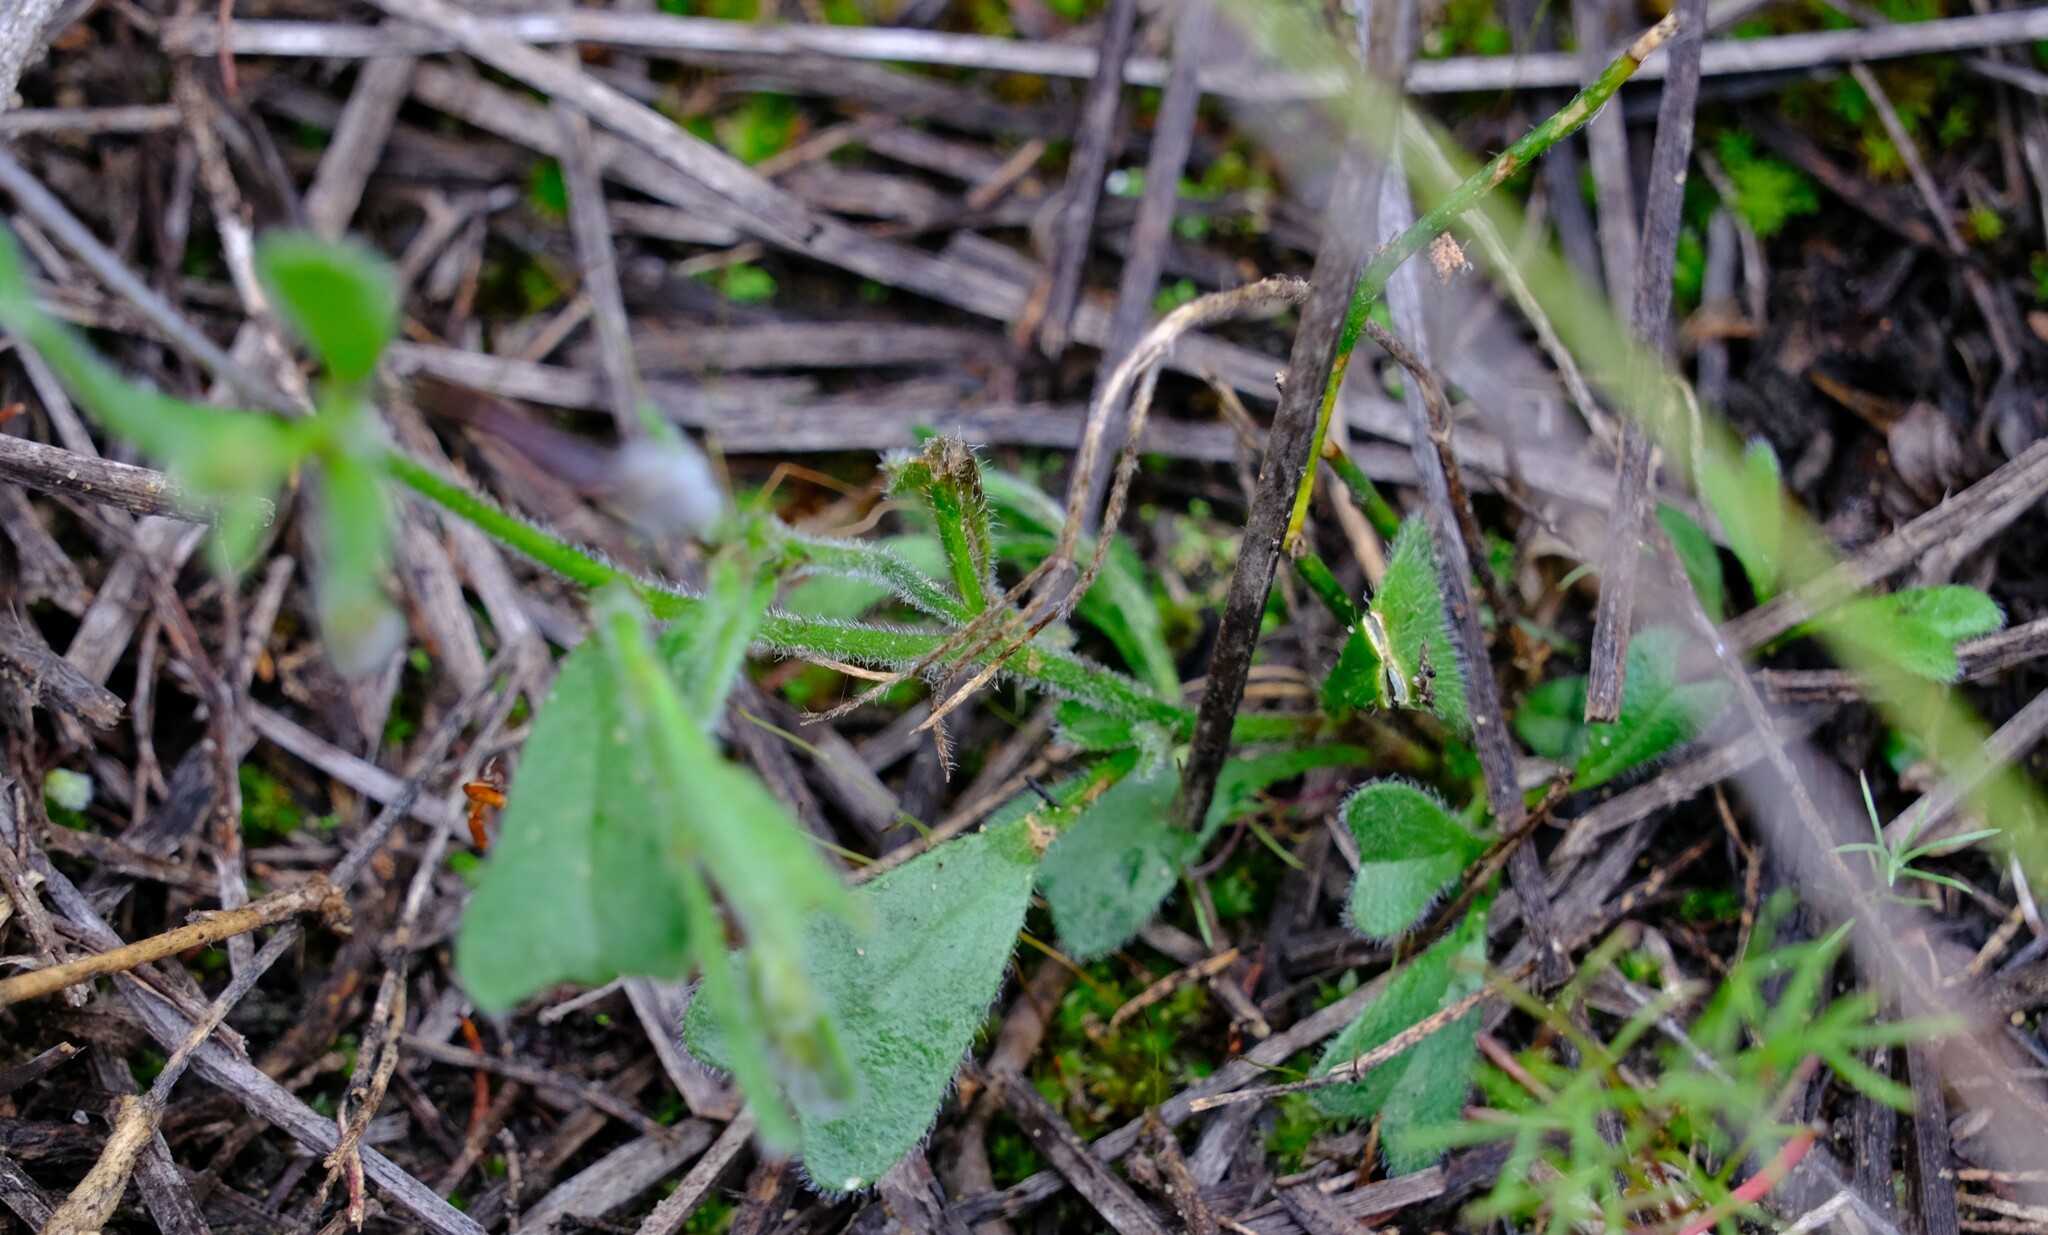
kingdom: Plantae
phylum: Tracheophyta
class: Magnoliopsida
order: Fabales
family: Fabaceae
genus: Isotropis
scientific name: Isotropis cuneifolia
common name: Granny bonnets
